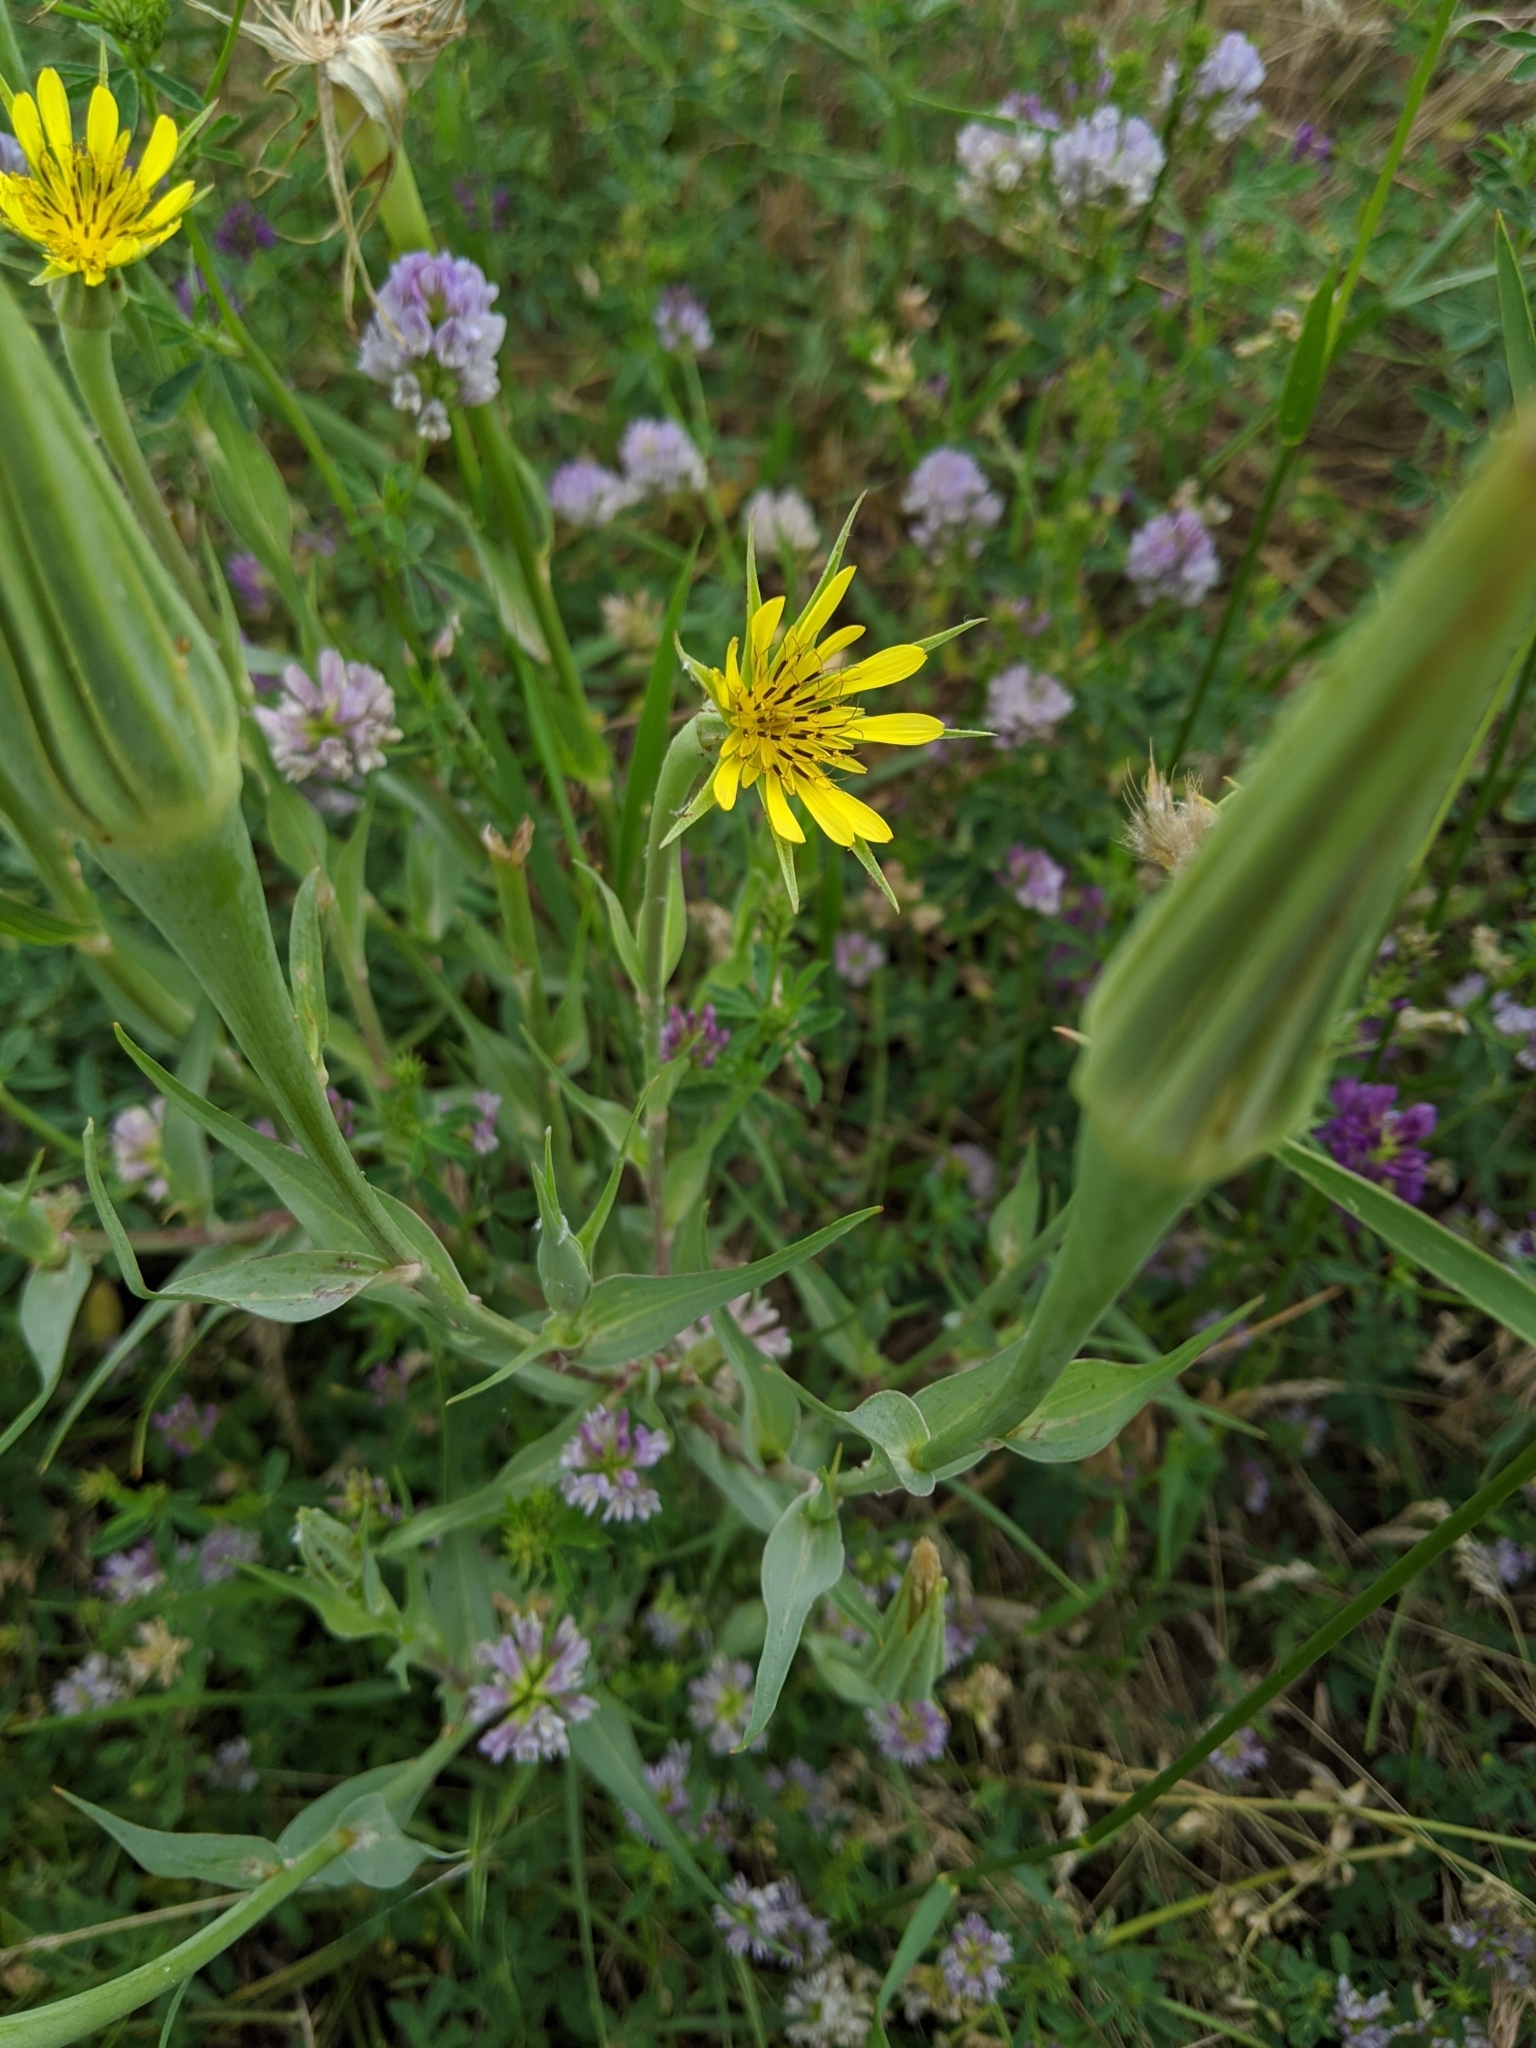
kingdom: Plantae
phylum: Tracheophyta
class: Magnoliopsida
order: Asterales
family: Asteraceae
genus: Tragopogon
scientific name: Tragopogon dubius
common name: Yellow salsify
